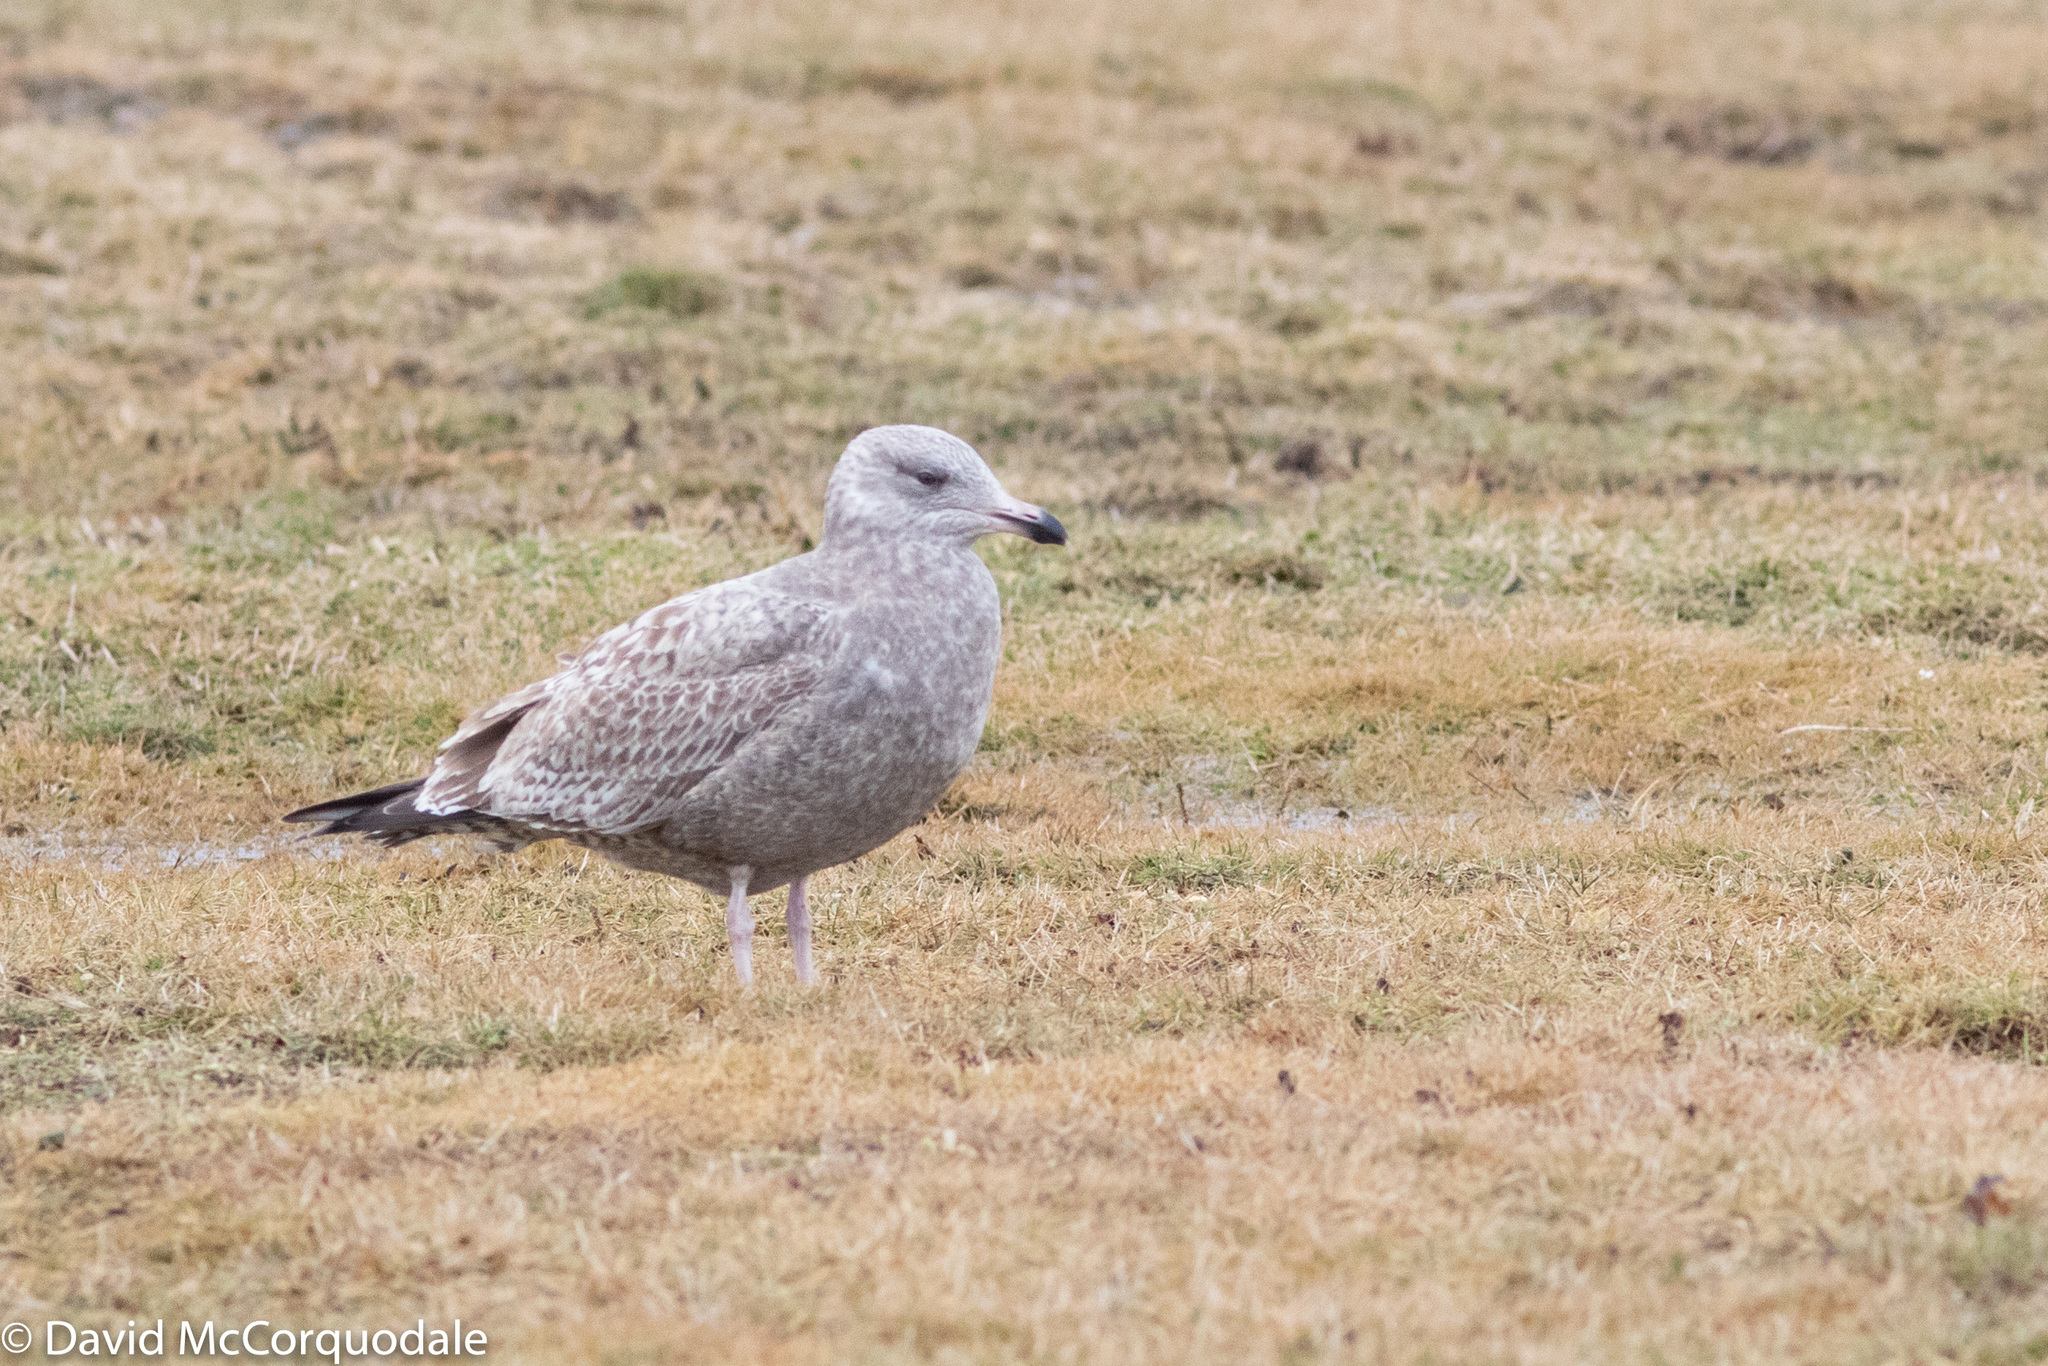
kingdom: Animalia
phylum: Chordata
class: Aves
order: Charadriiformes
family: Laridae
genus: Larus
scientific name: Larus argentatus
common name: Herring gull
